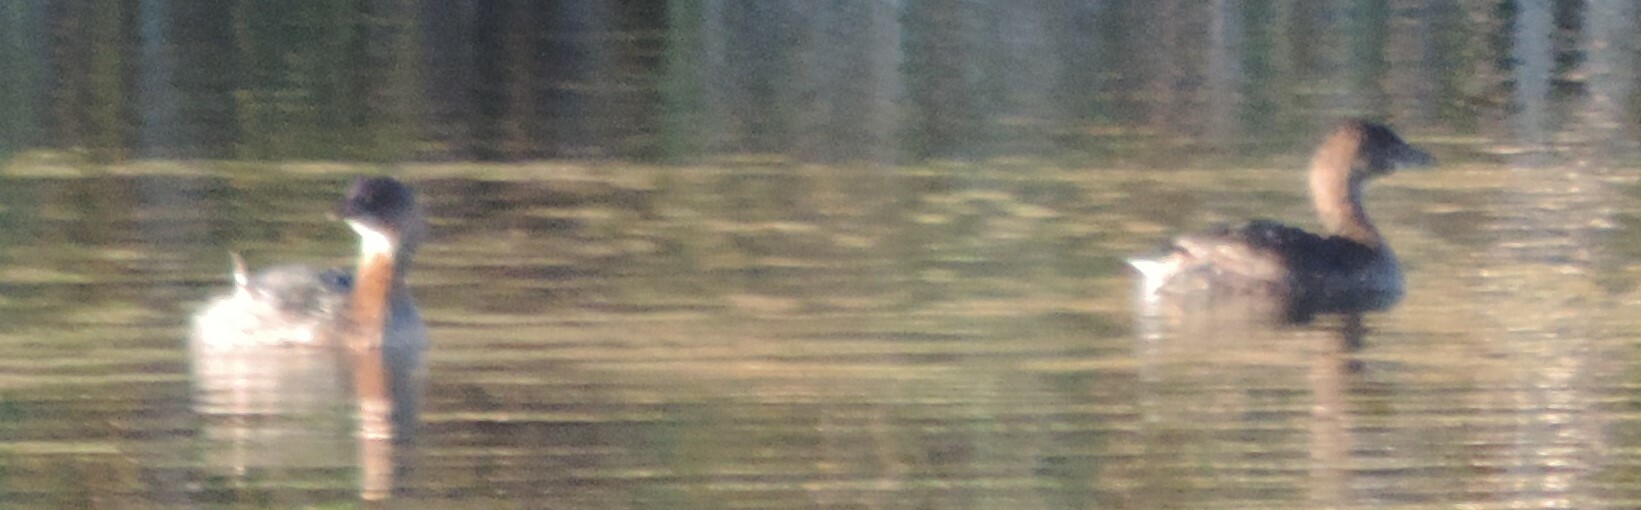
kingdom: Animalia
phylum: Chordata
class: Aves
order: Podicipediformes
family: Podicipedidae
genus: Podilymbus
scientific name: Podilymbus podiceps
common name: Pied-billed grebe
